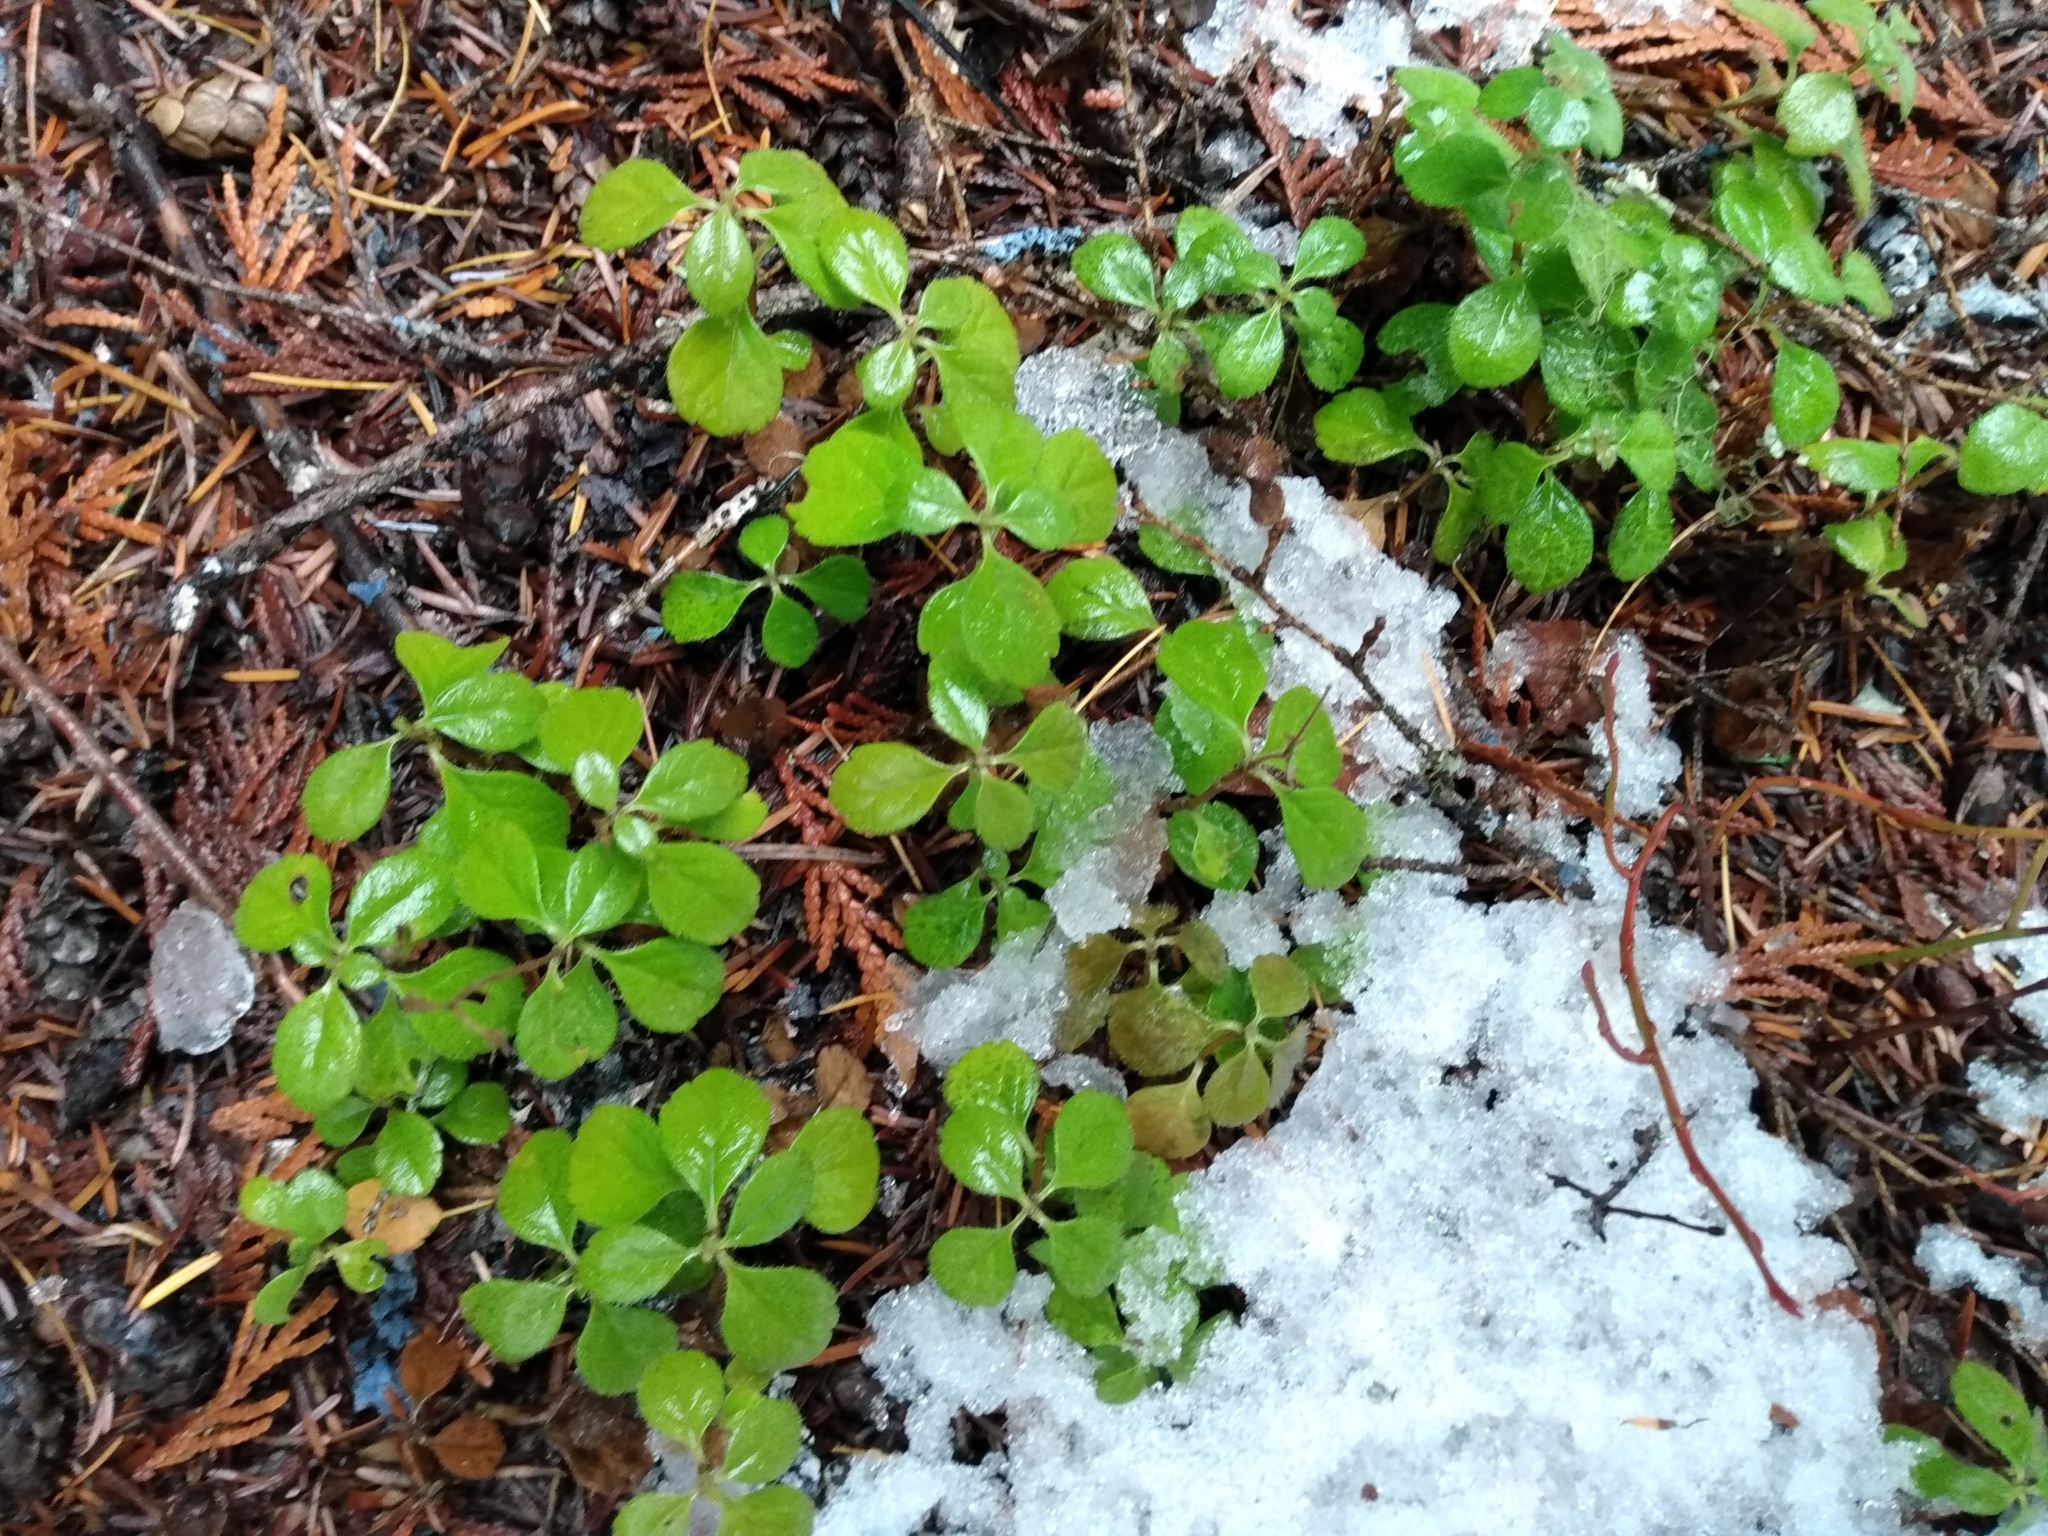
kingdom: Plantae
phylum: Tracheophyta
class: Magnoliopsida
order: Dipsacales
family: Caprifoliaceae
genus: Linnaea
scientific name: Linnaea borealis
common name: Twinflower
